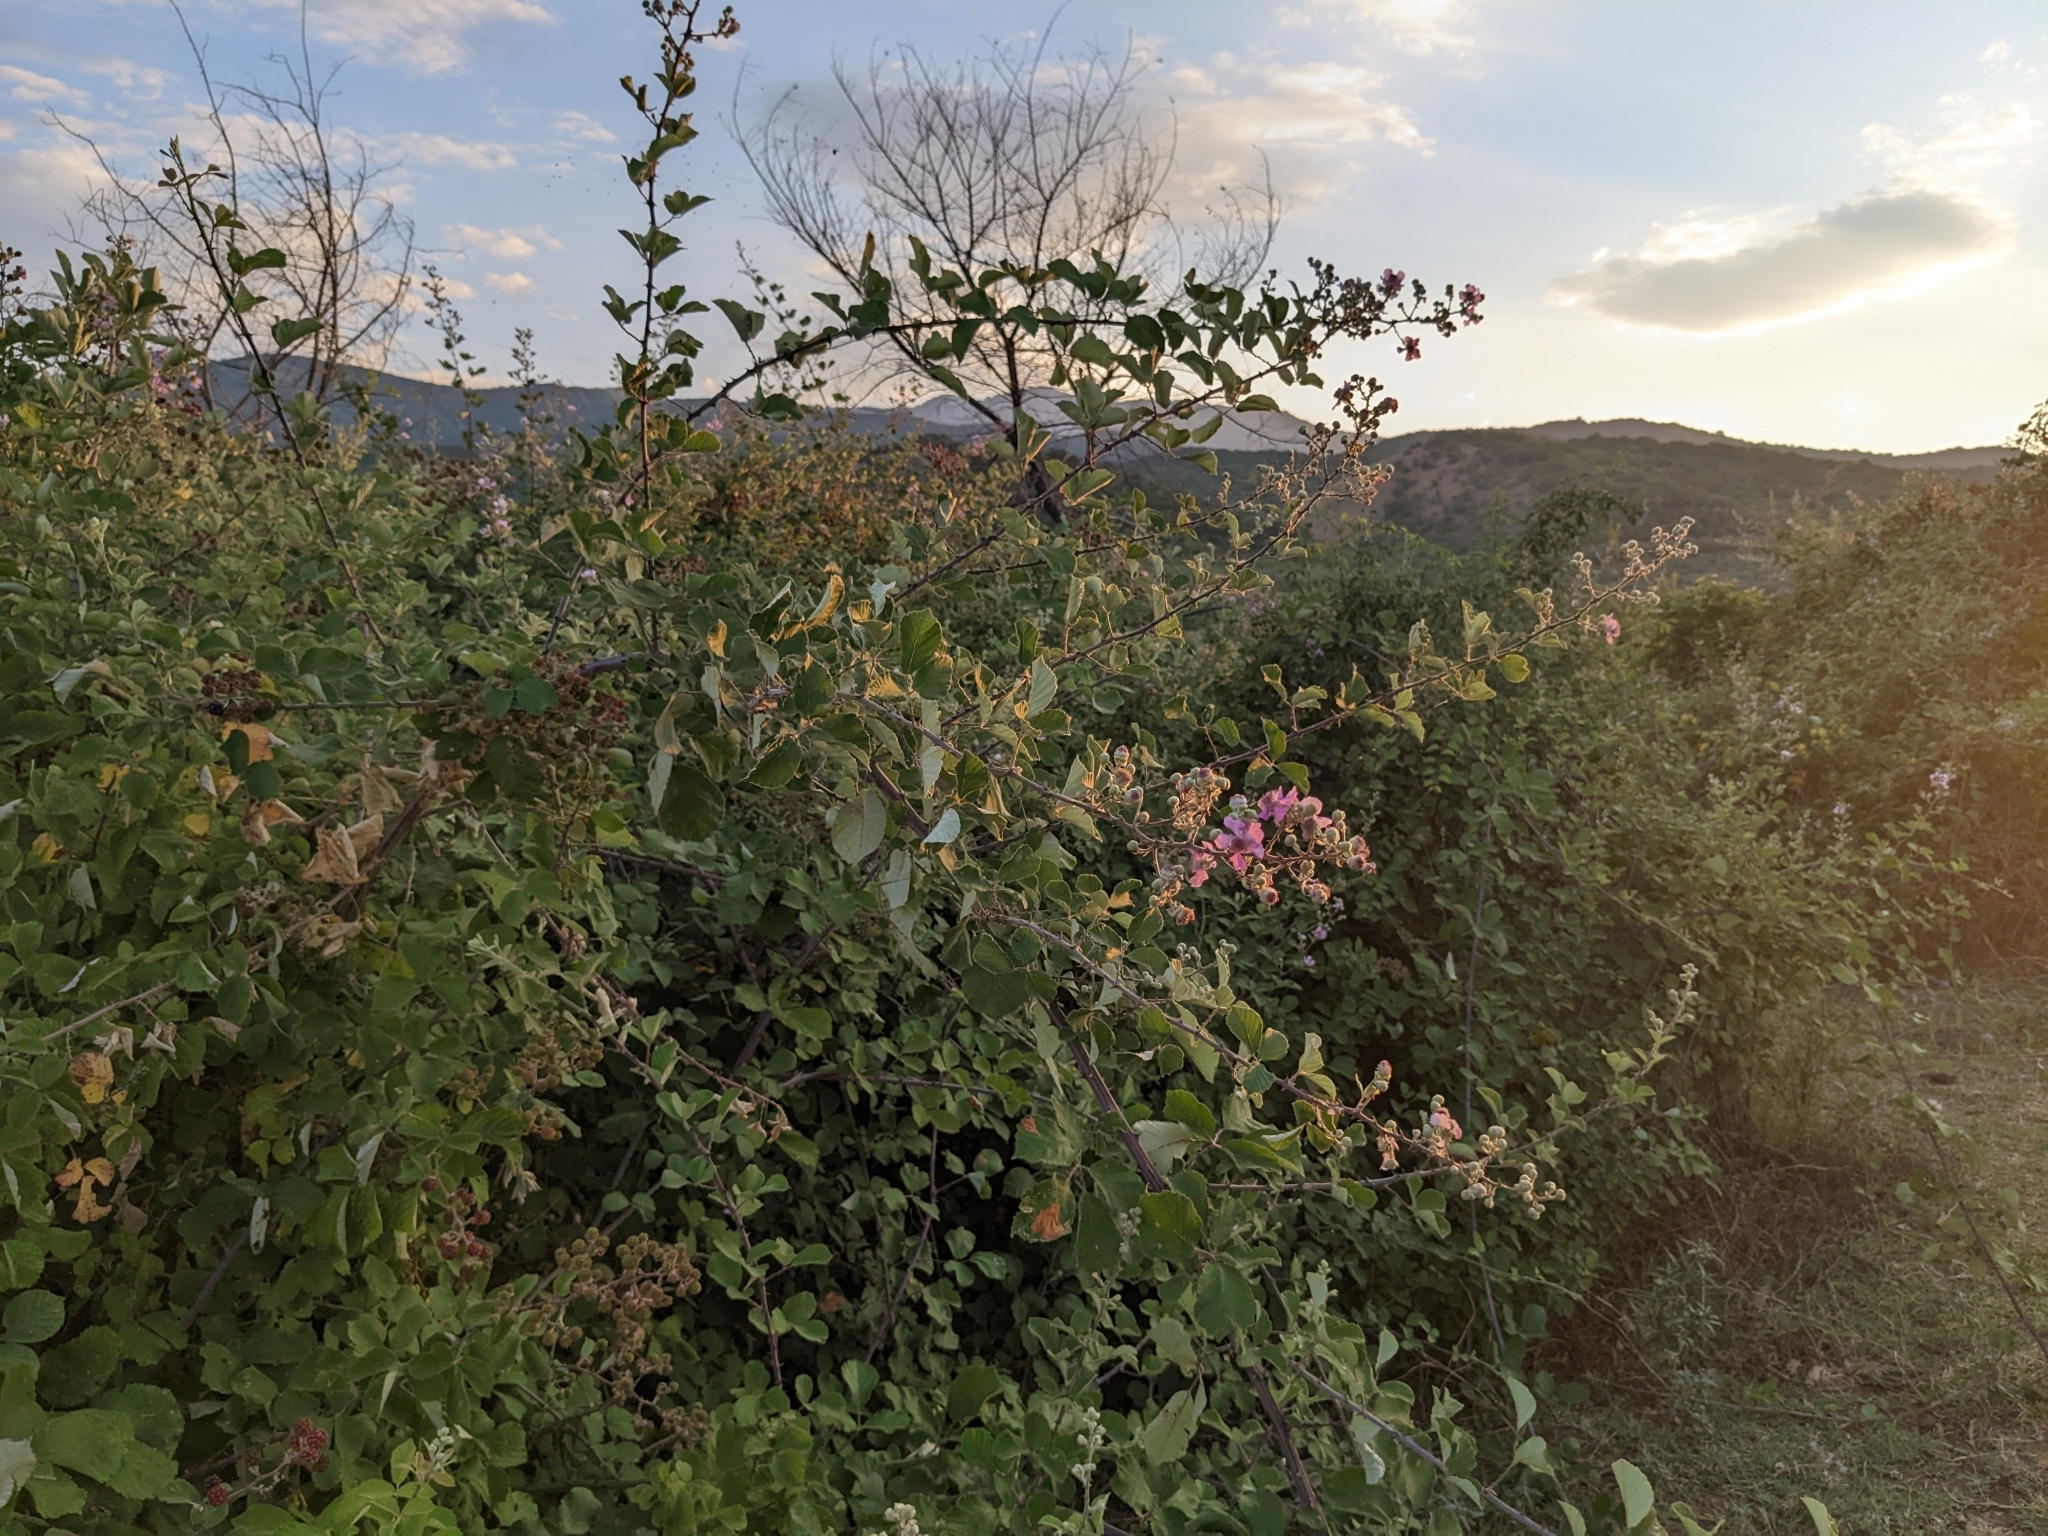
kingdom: Plantae
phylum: Tracheophyta
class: Magnoliopsida
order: Rosales
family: Rosaceae
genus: Rubus
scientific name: Rubus sanctus
